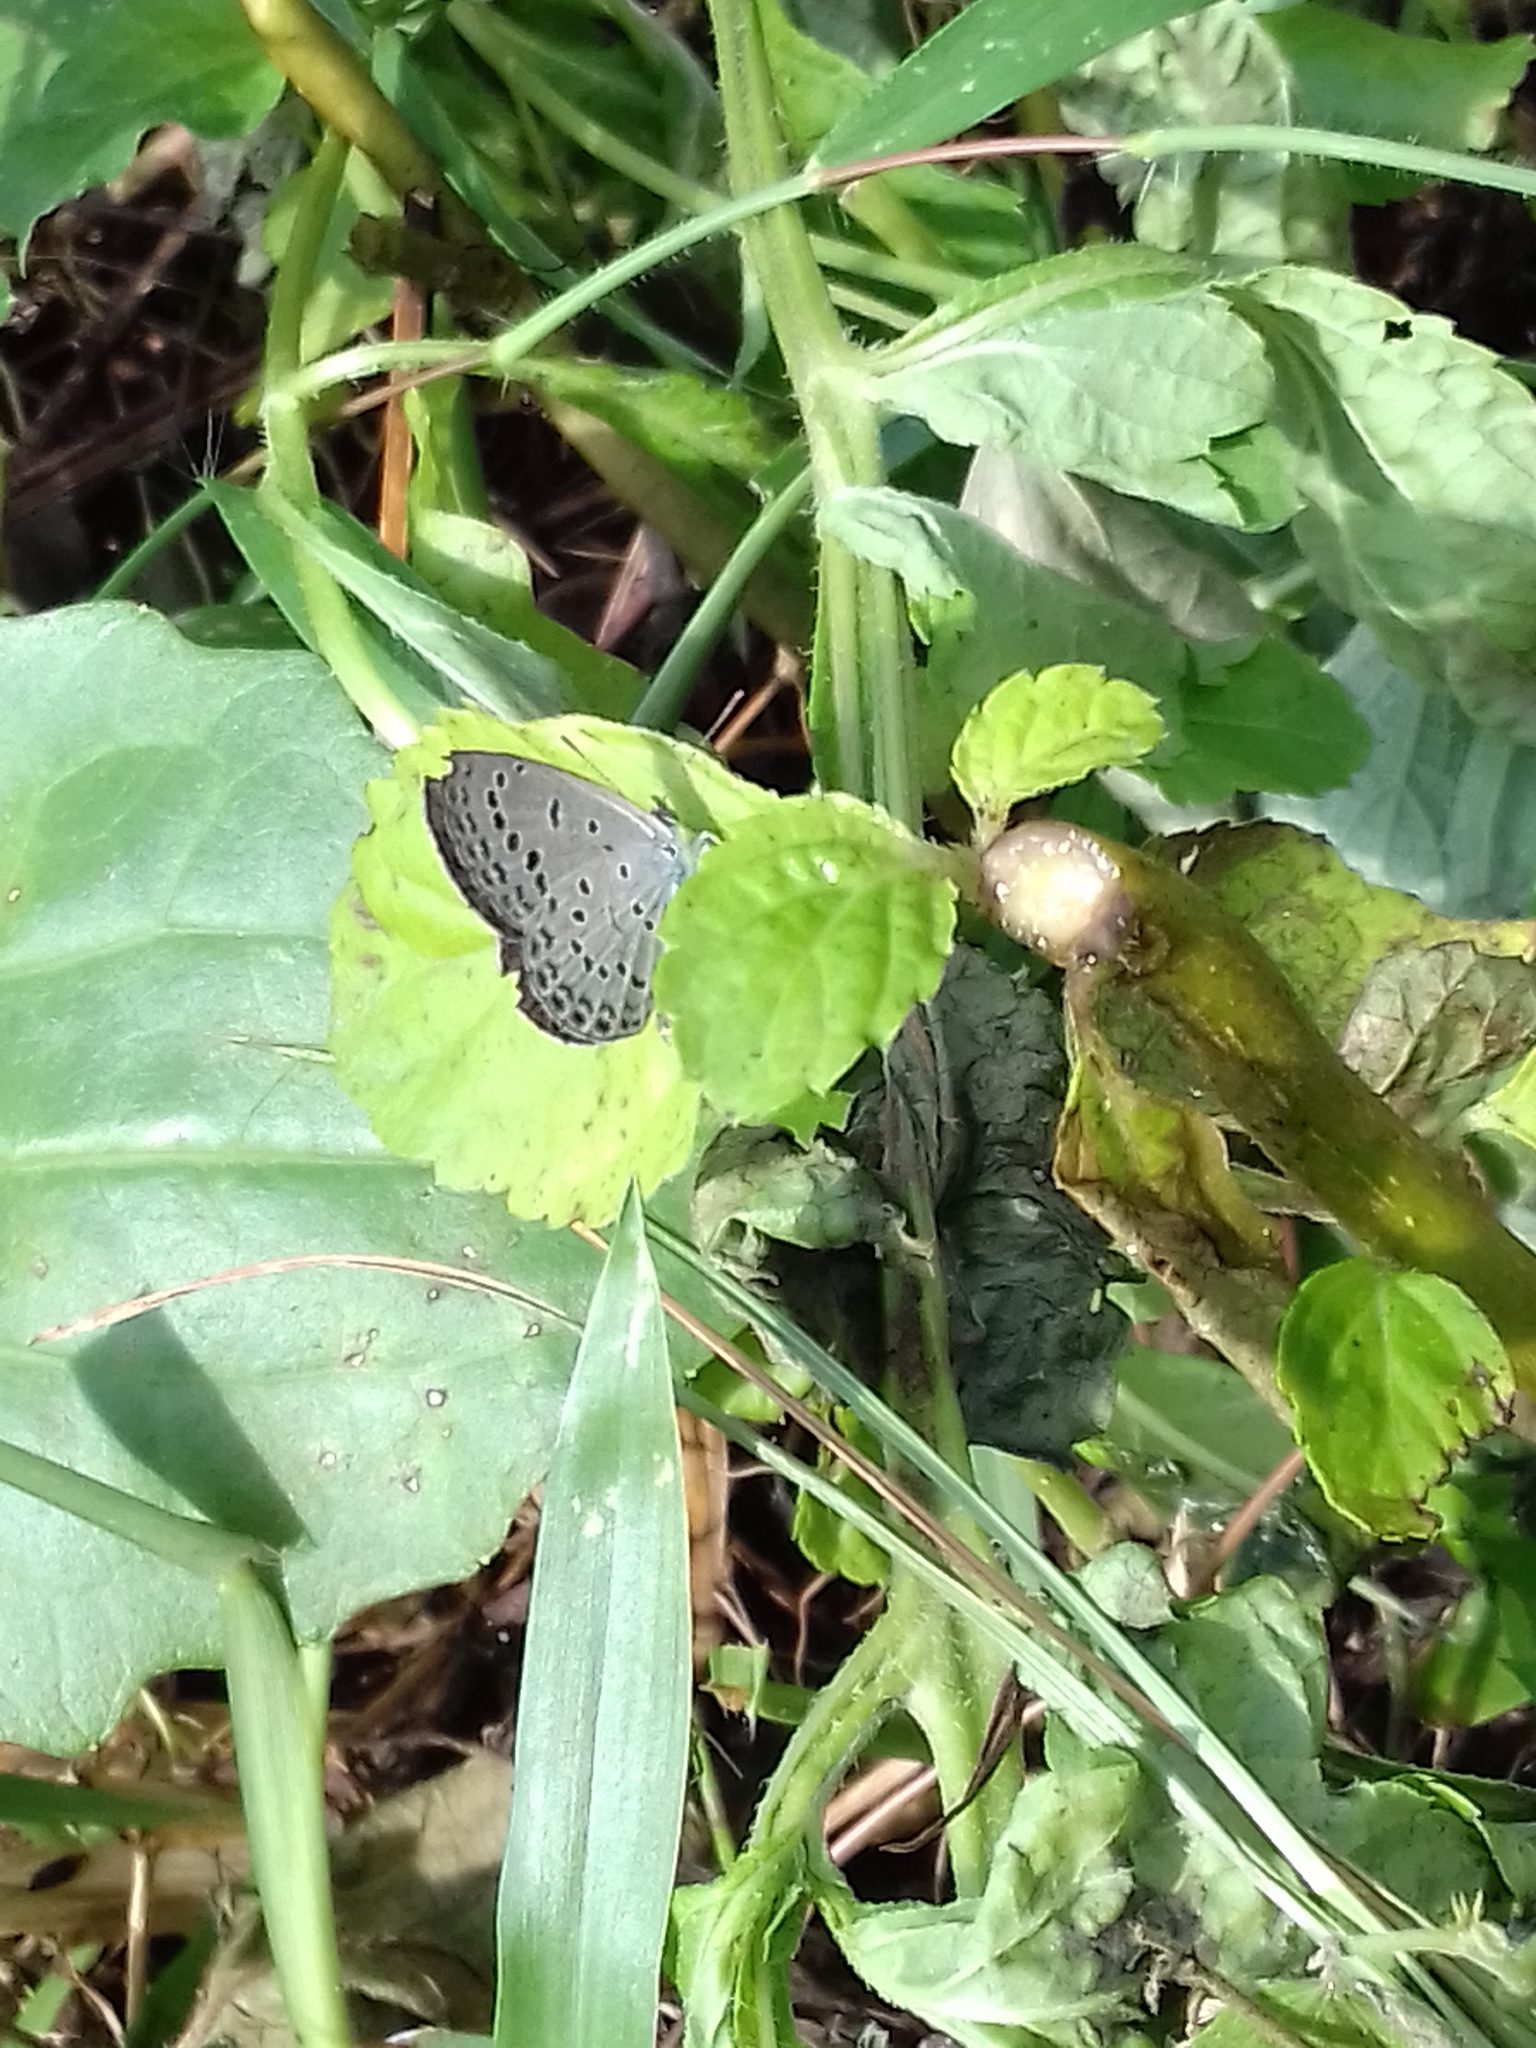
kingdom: Animalia
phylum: Arthropoda
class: Insecta
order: Lepidoptera
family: Lycaenidae
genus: Pseudozizeeria
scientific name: Pseudozizeeria maha
